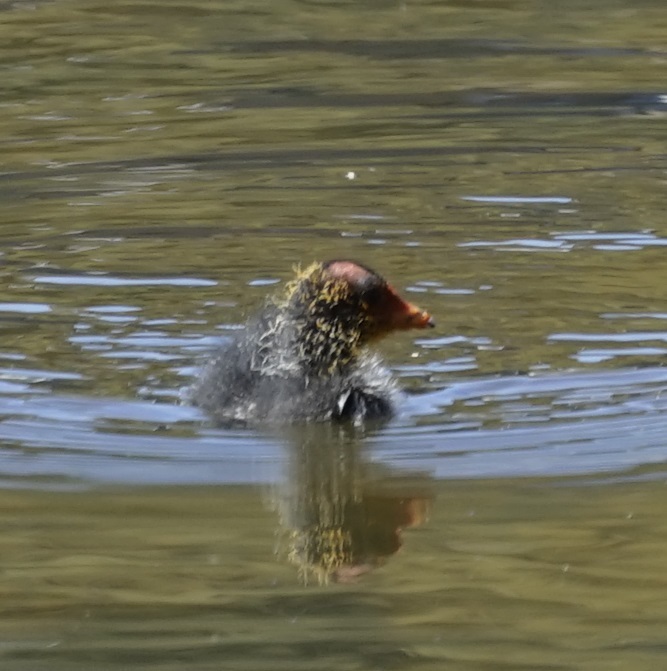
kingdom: Animalia
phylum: Chordata
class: Aves
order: Gruiformes
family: Rallidae
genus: Fulica
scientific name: Fulica atra
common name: Eurasian coot
